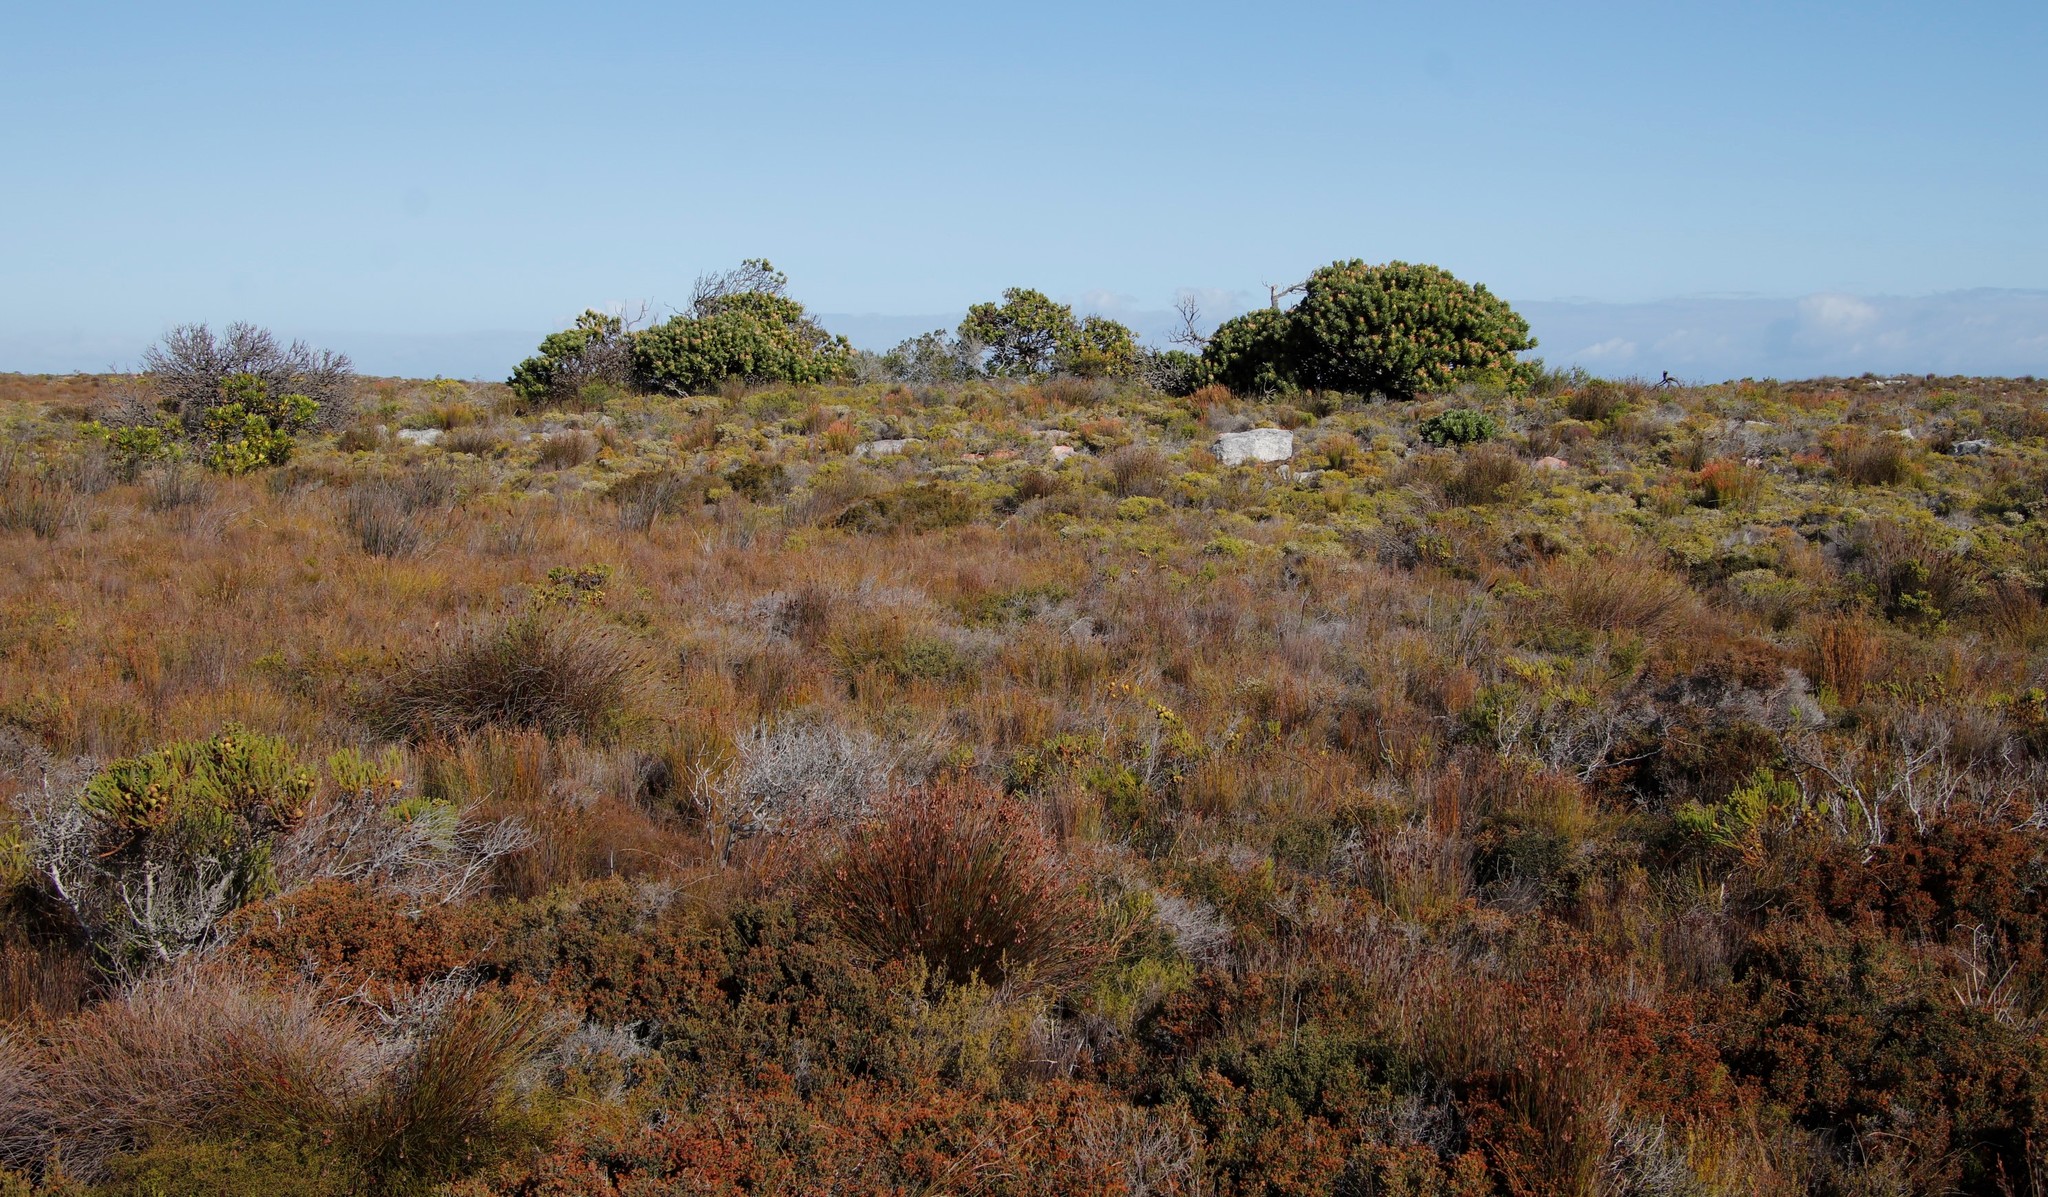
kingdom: Plantae
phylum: Tracheophyta
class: Magnoliopsida
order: Proteales
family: Proteaceae
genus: Mimetes
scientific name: Mimetes fimbriifolius
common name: Fringed bottlebrush
